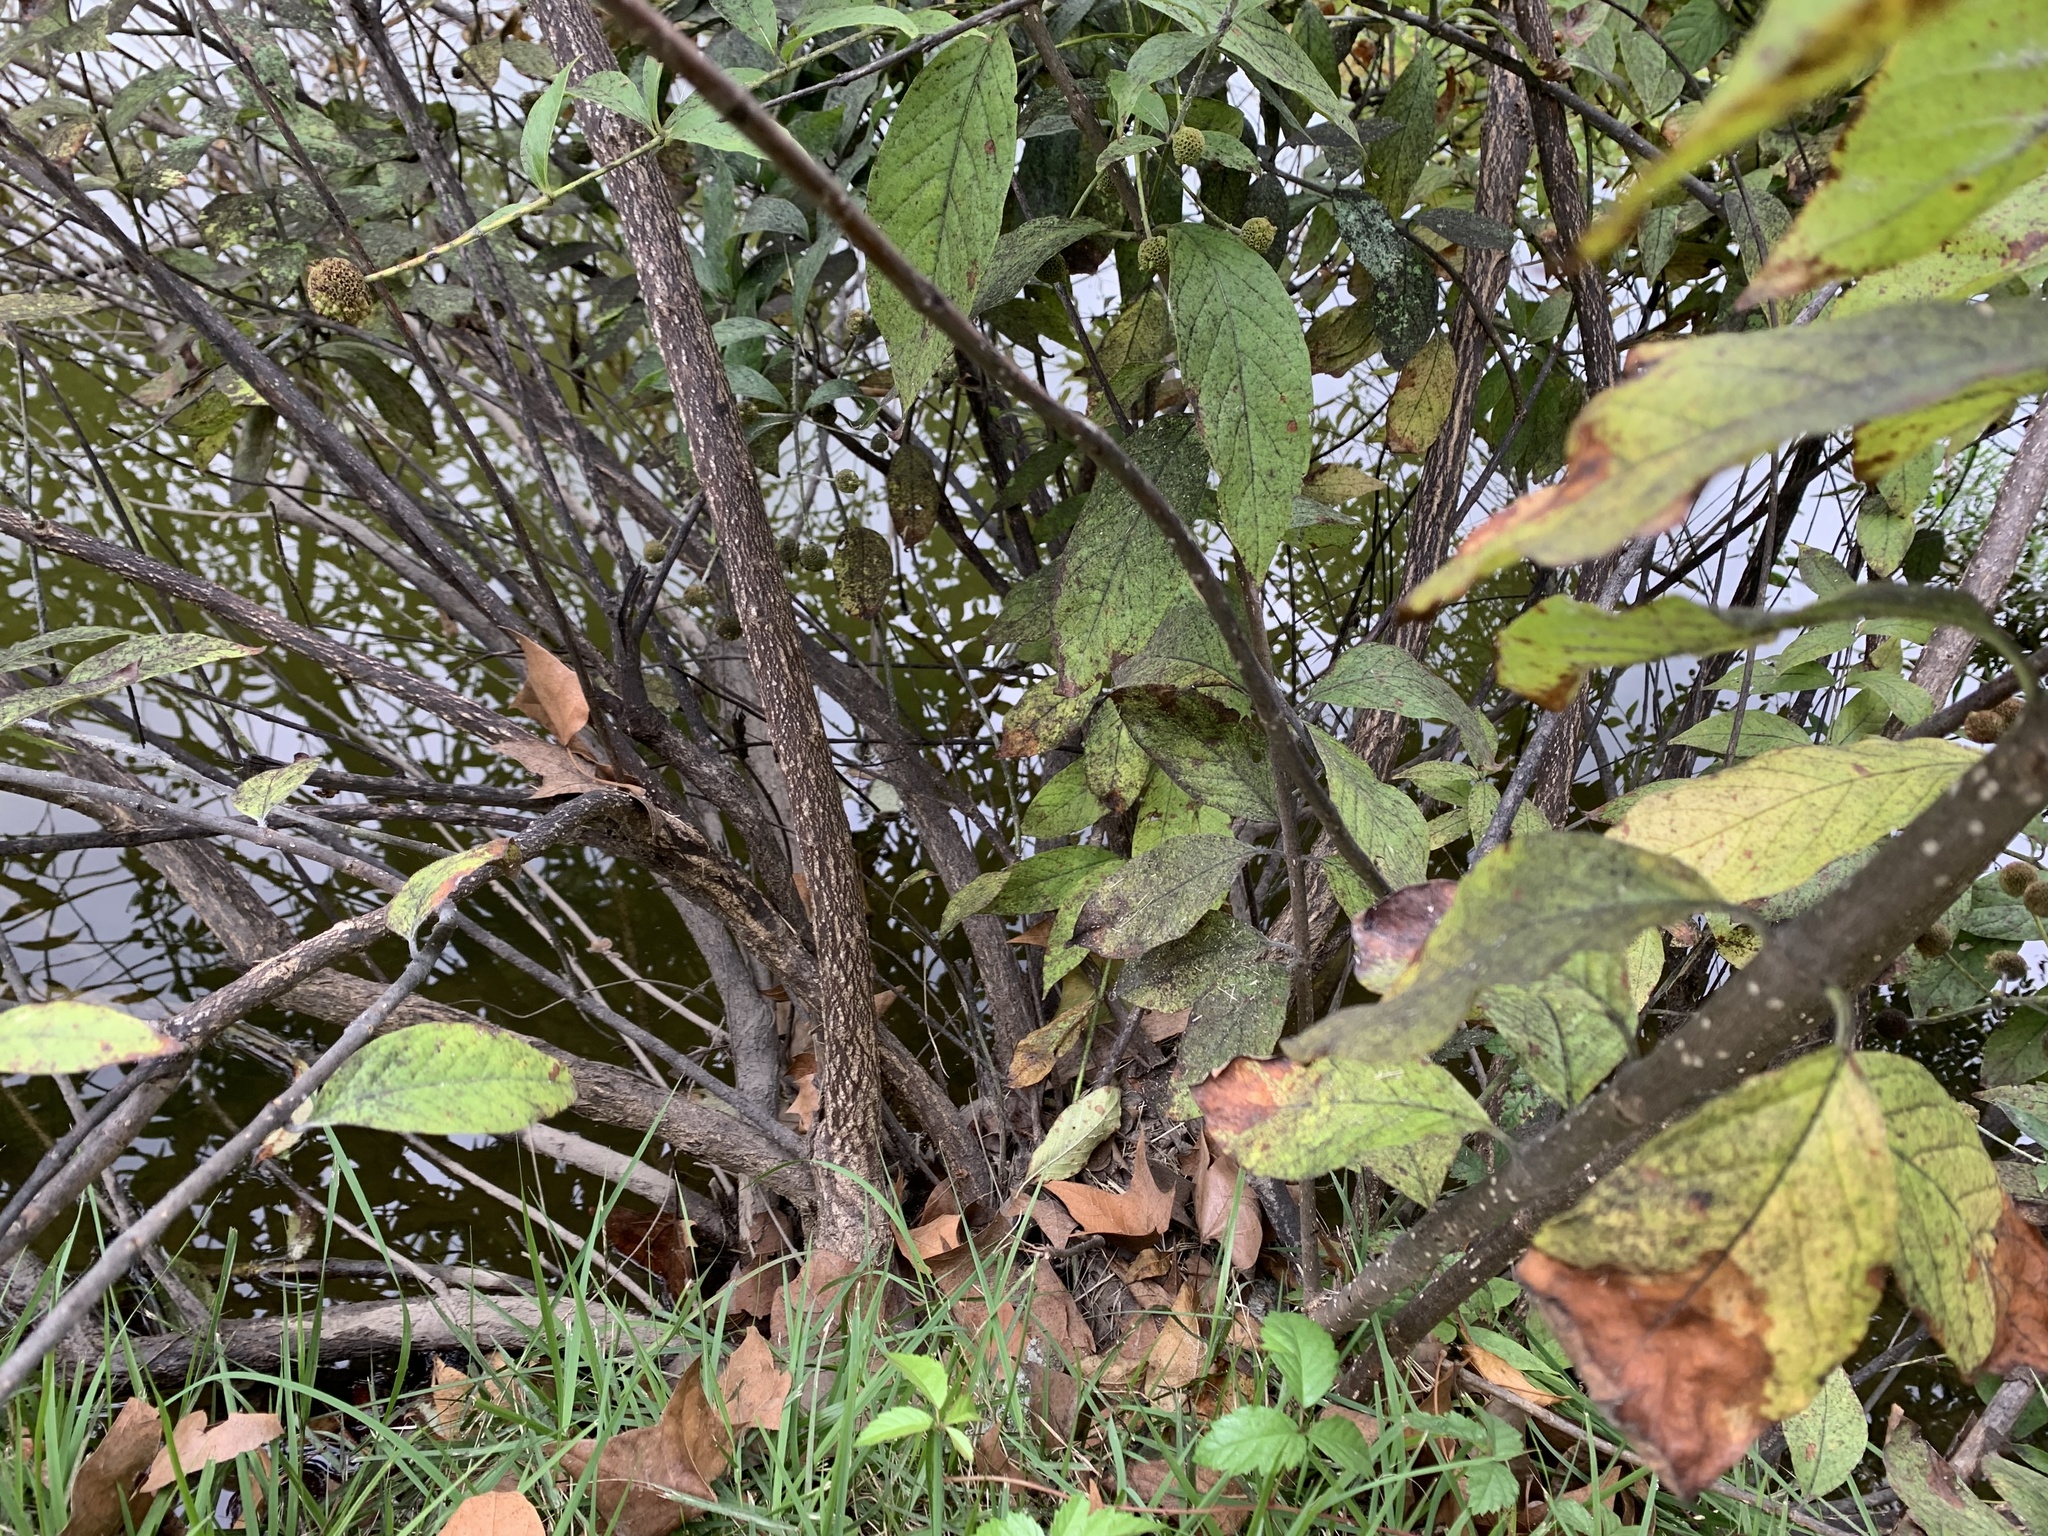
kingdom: Plantae
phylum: Tracheophyta
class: Magnoliopsida
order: Gentianales
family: Rubiaceae
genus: Cephalanthus
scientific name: Cephalanthus occidentalis
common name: Button-willow
